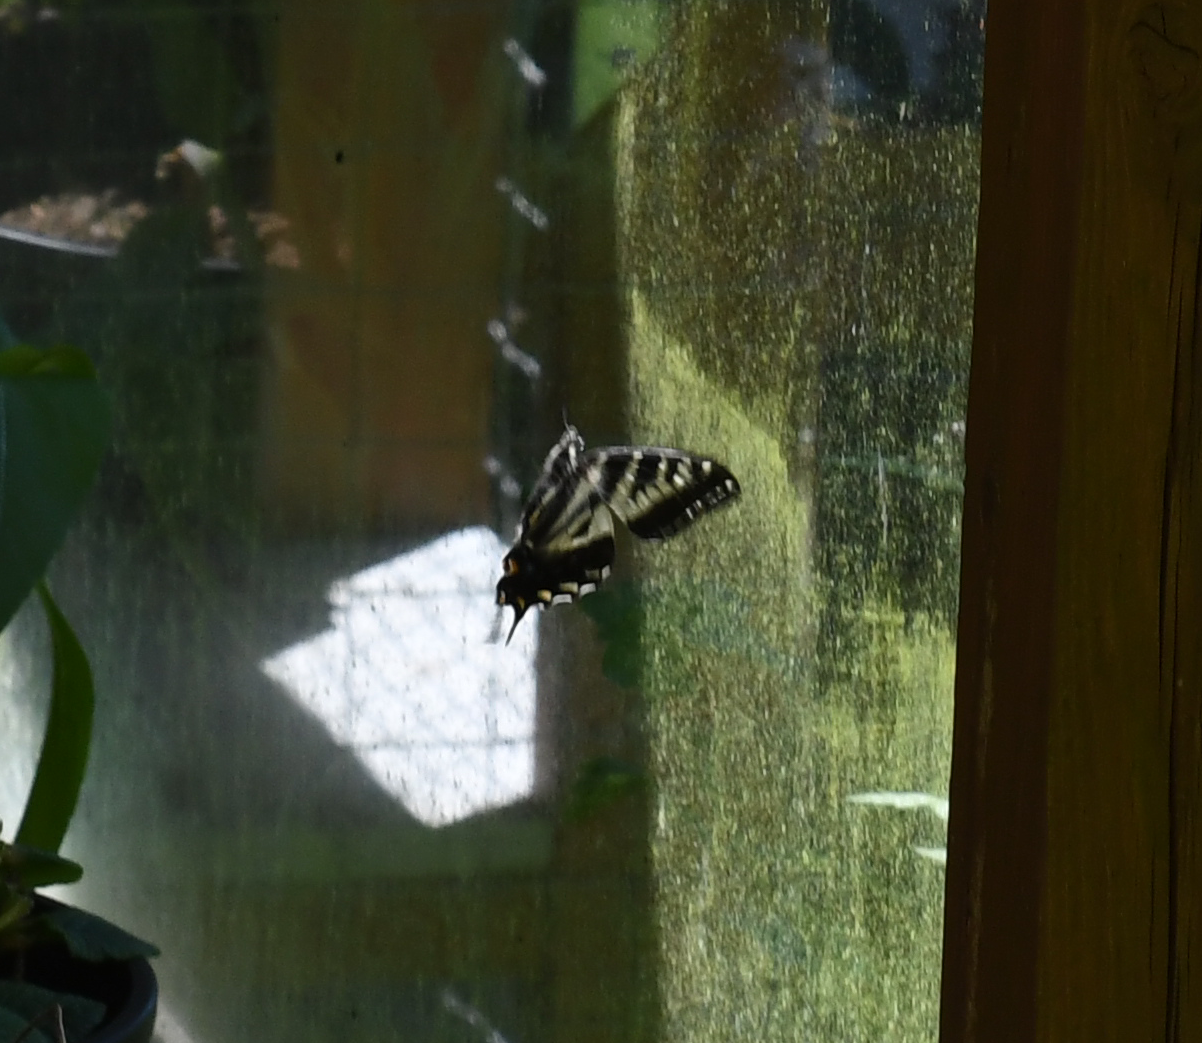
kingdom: Animalia
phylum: Arthropoda
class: Insecta
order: Lepidoptera
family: Papilionidae
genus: Papilio
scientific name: Papilio eurymedon
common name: Pale tiger swallowtail
